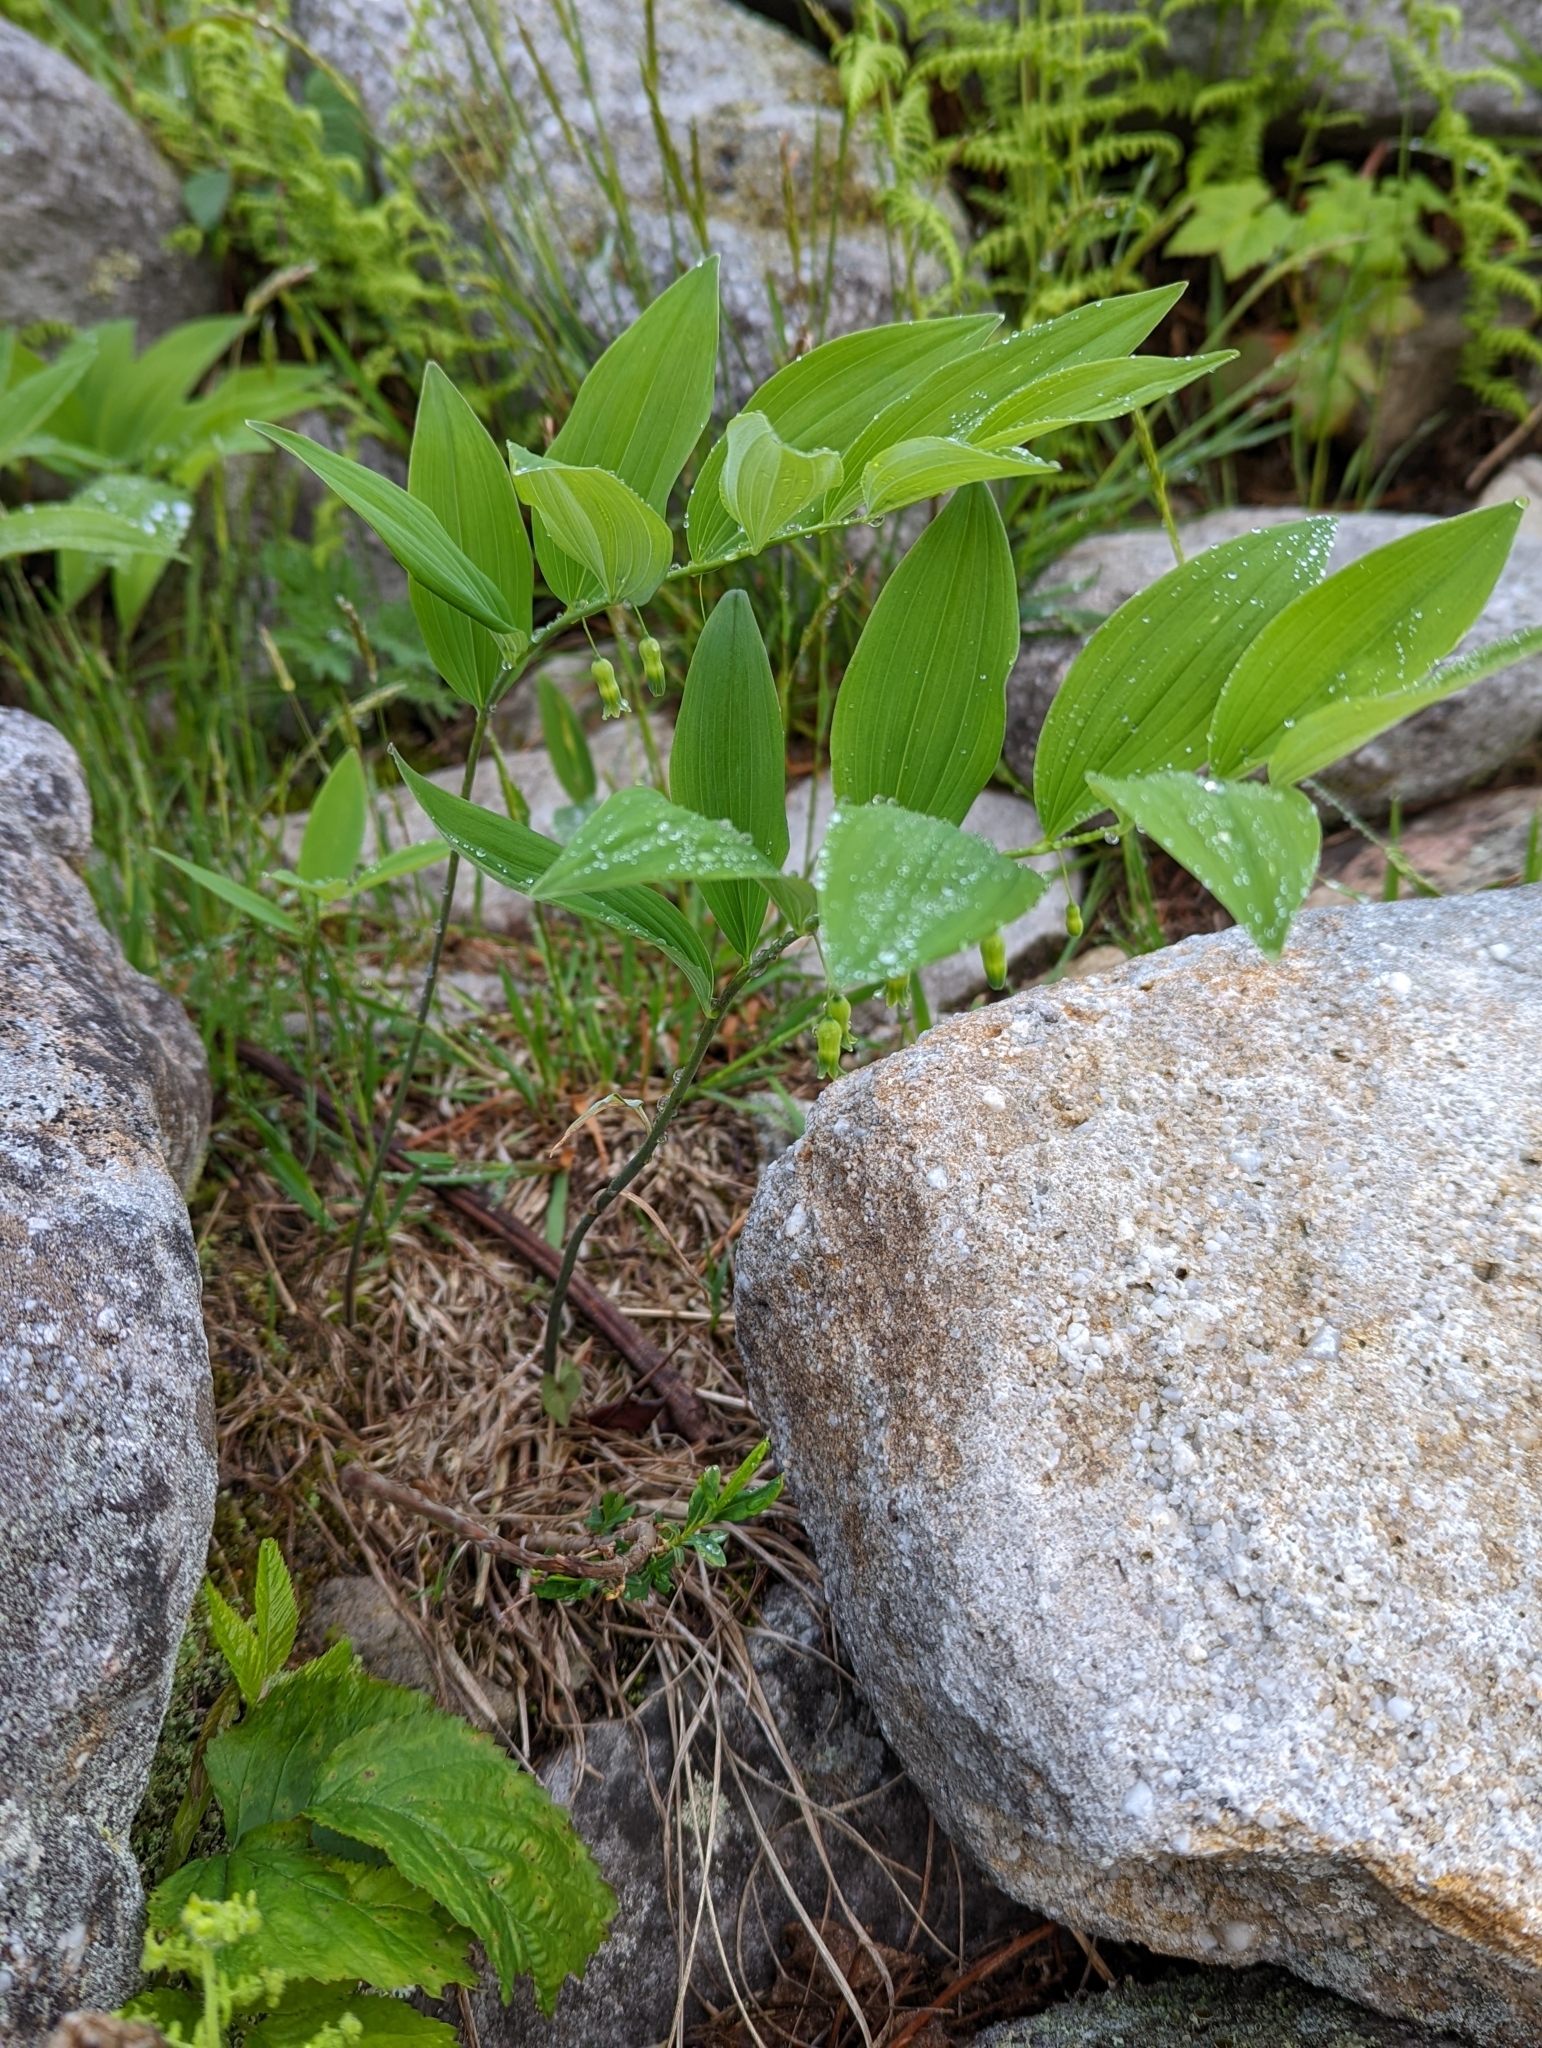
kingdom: Plantae
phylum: Tracheophyta
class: Liliopsida
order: Asparagales
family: Asparagaceae
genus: Polygonatum
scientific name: Polygonatum pubescens
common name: Downy solomon's seal
